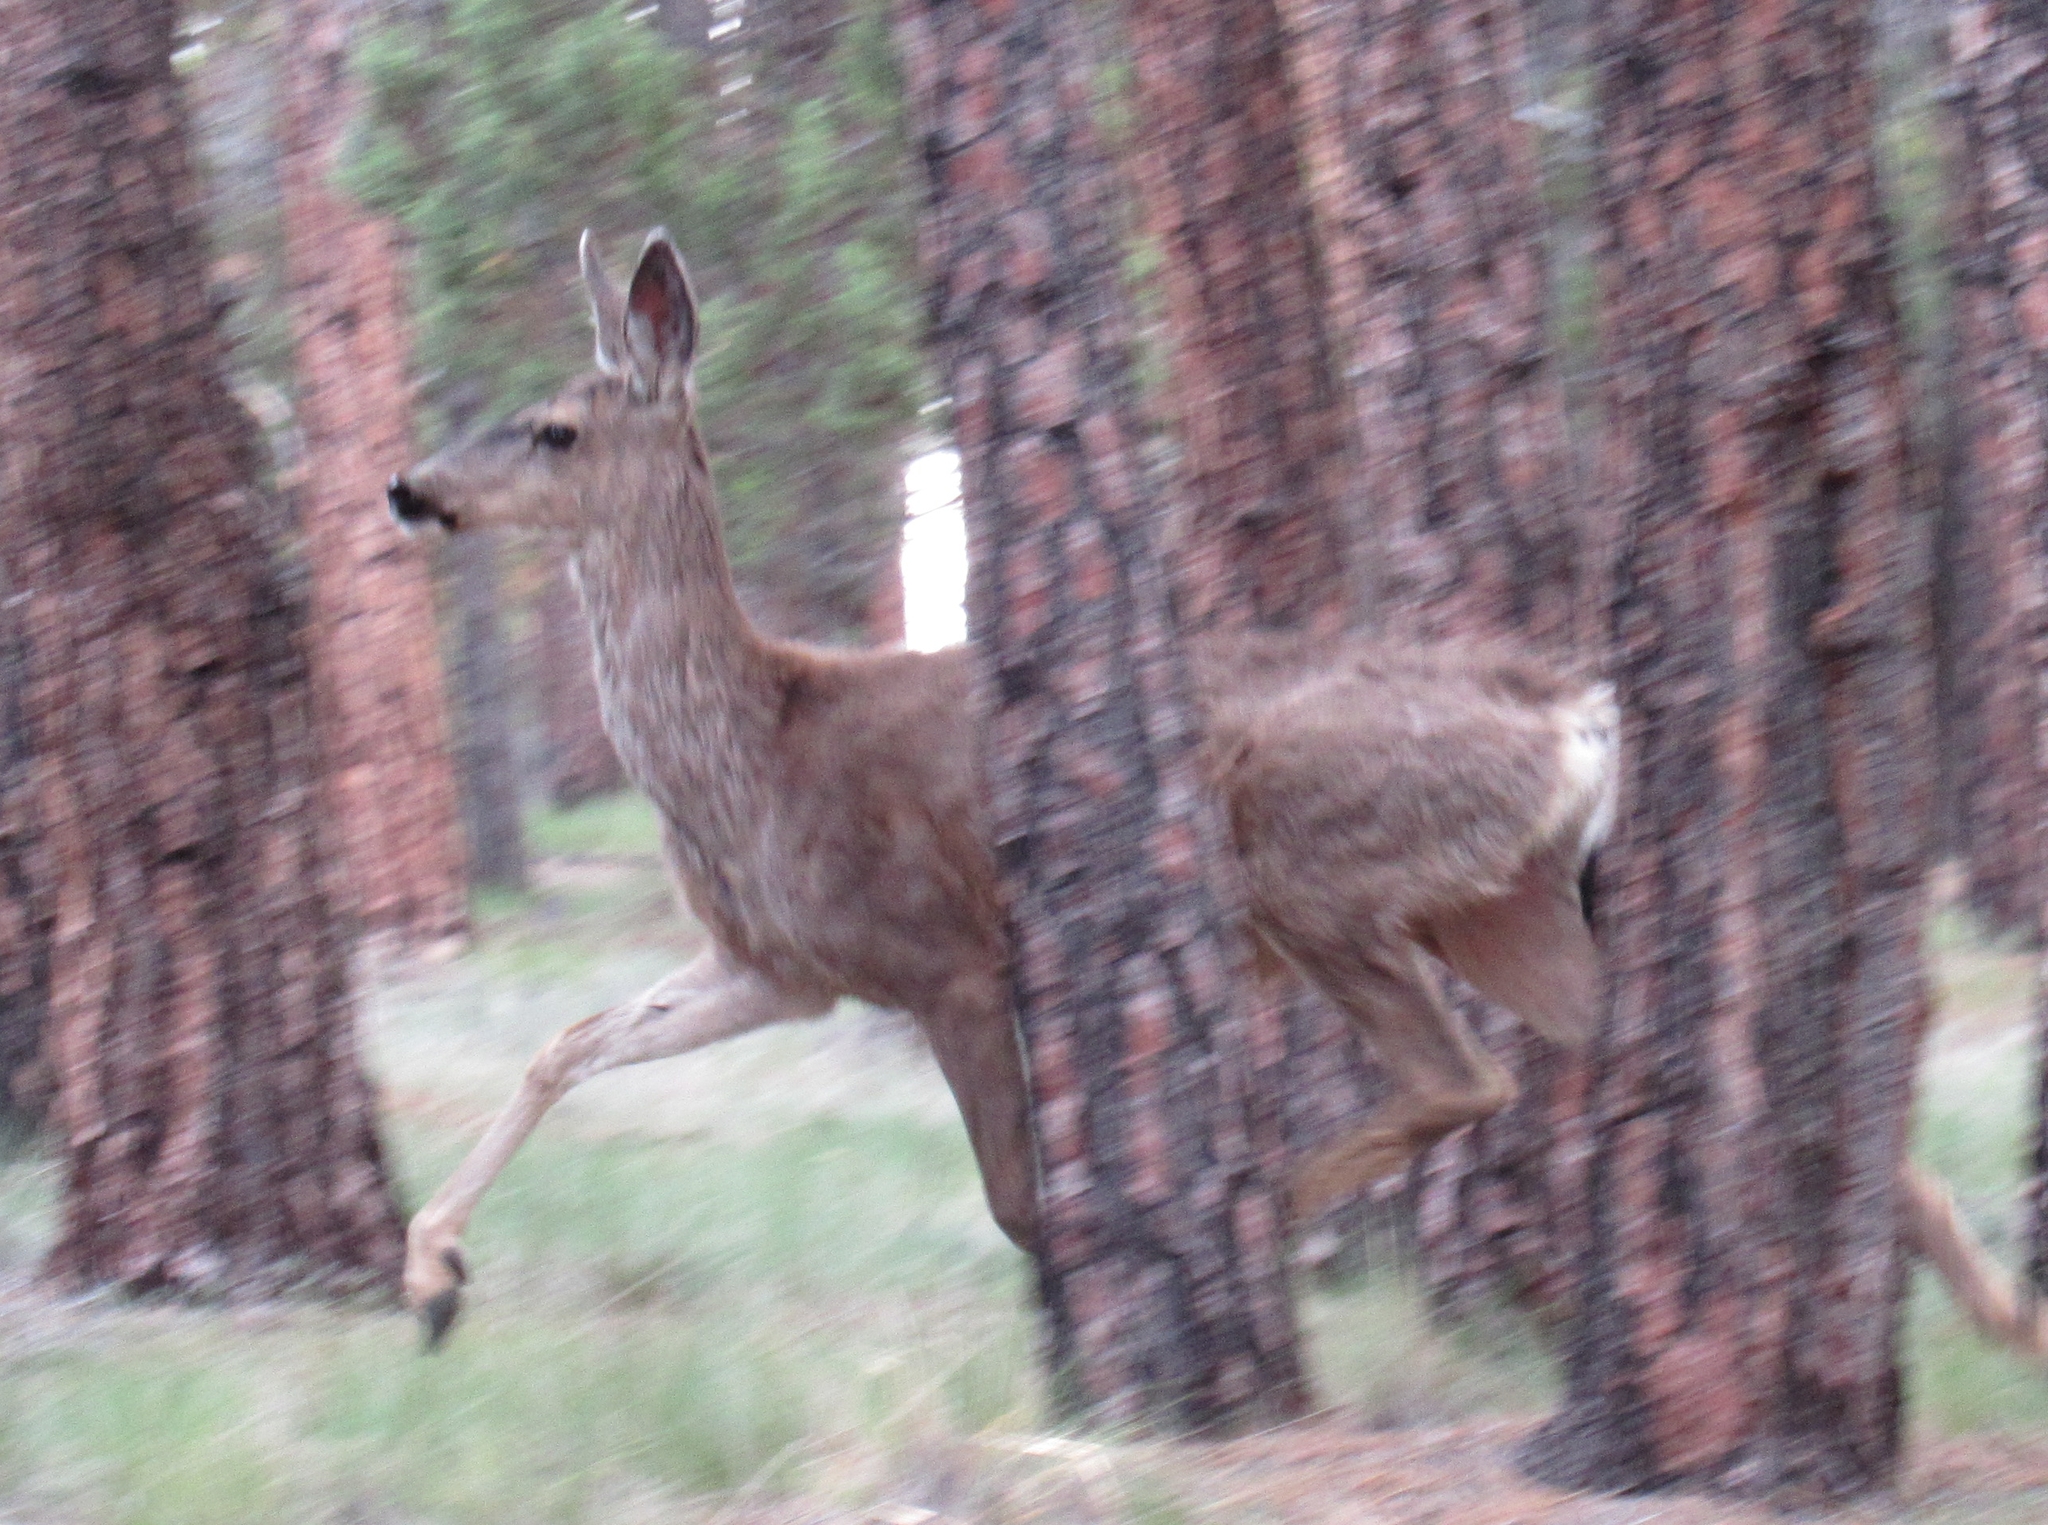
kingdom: Animalia
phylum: Chordata
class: Mammalia
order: Artiodactyla
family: Cervidae
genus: Odocoileus
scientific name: Odocoileus hemionus
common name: Mule deer
